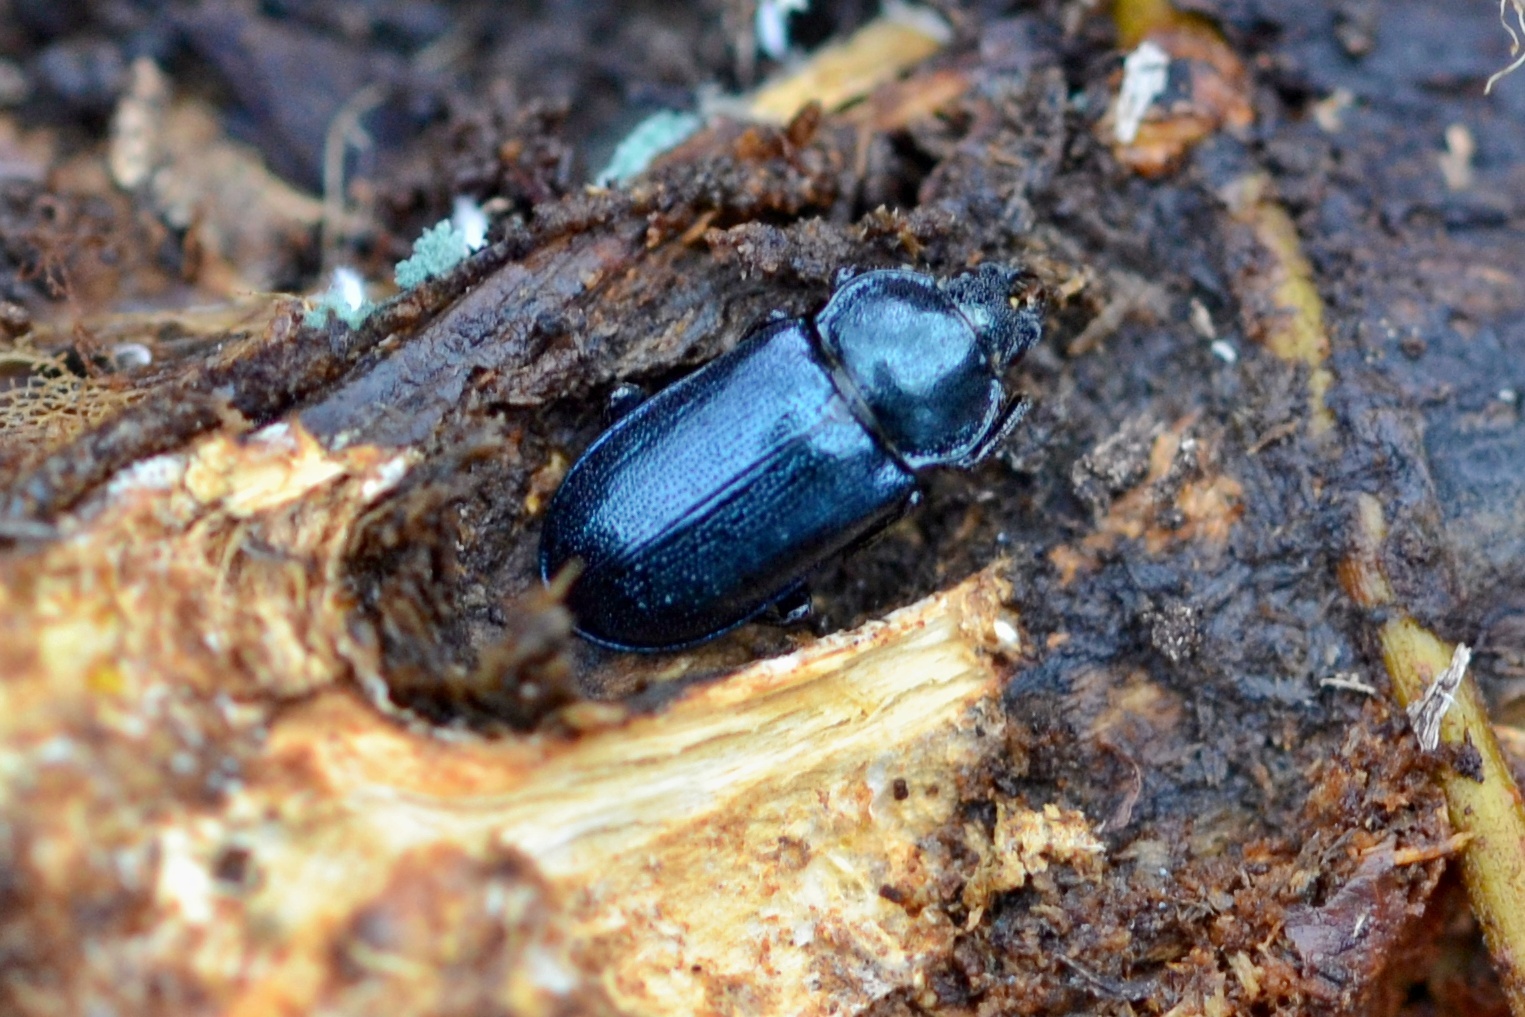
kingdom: Animalia
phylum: Arthropoda
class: Insecta
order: Coleoptera
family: Lucanidae
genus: Platycerus
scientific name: Platycerus caraboides
